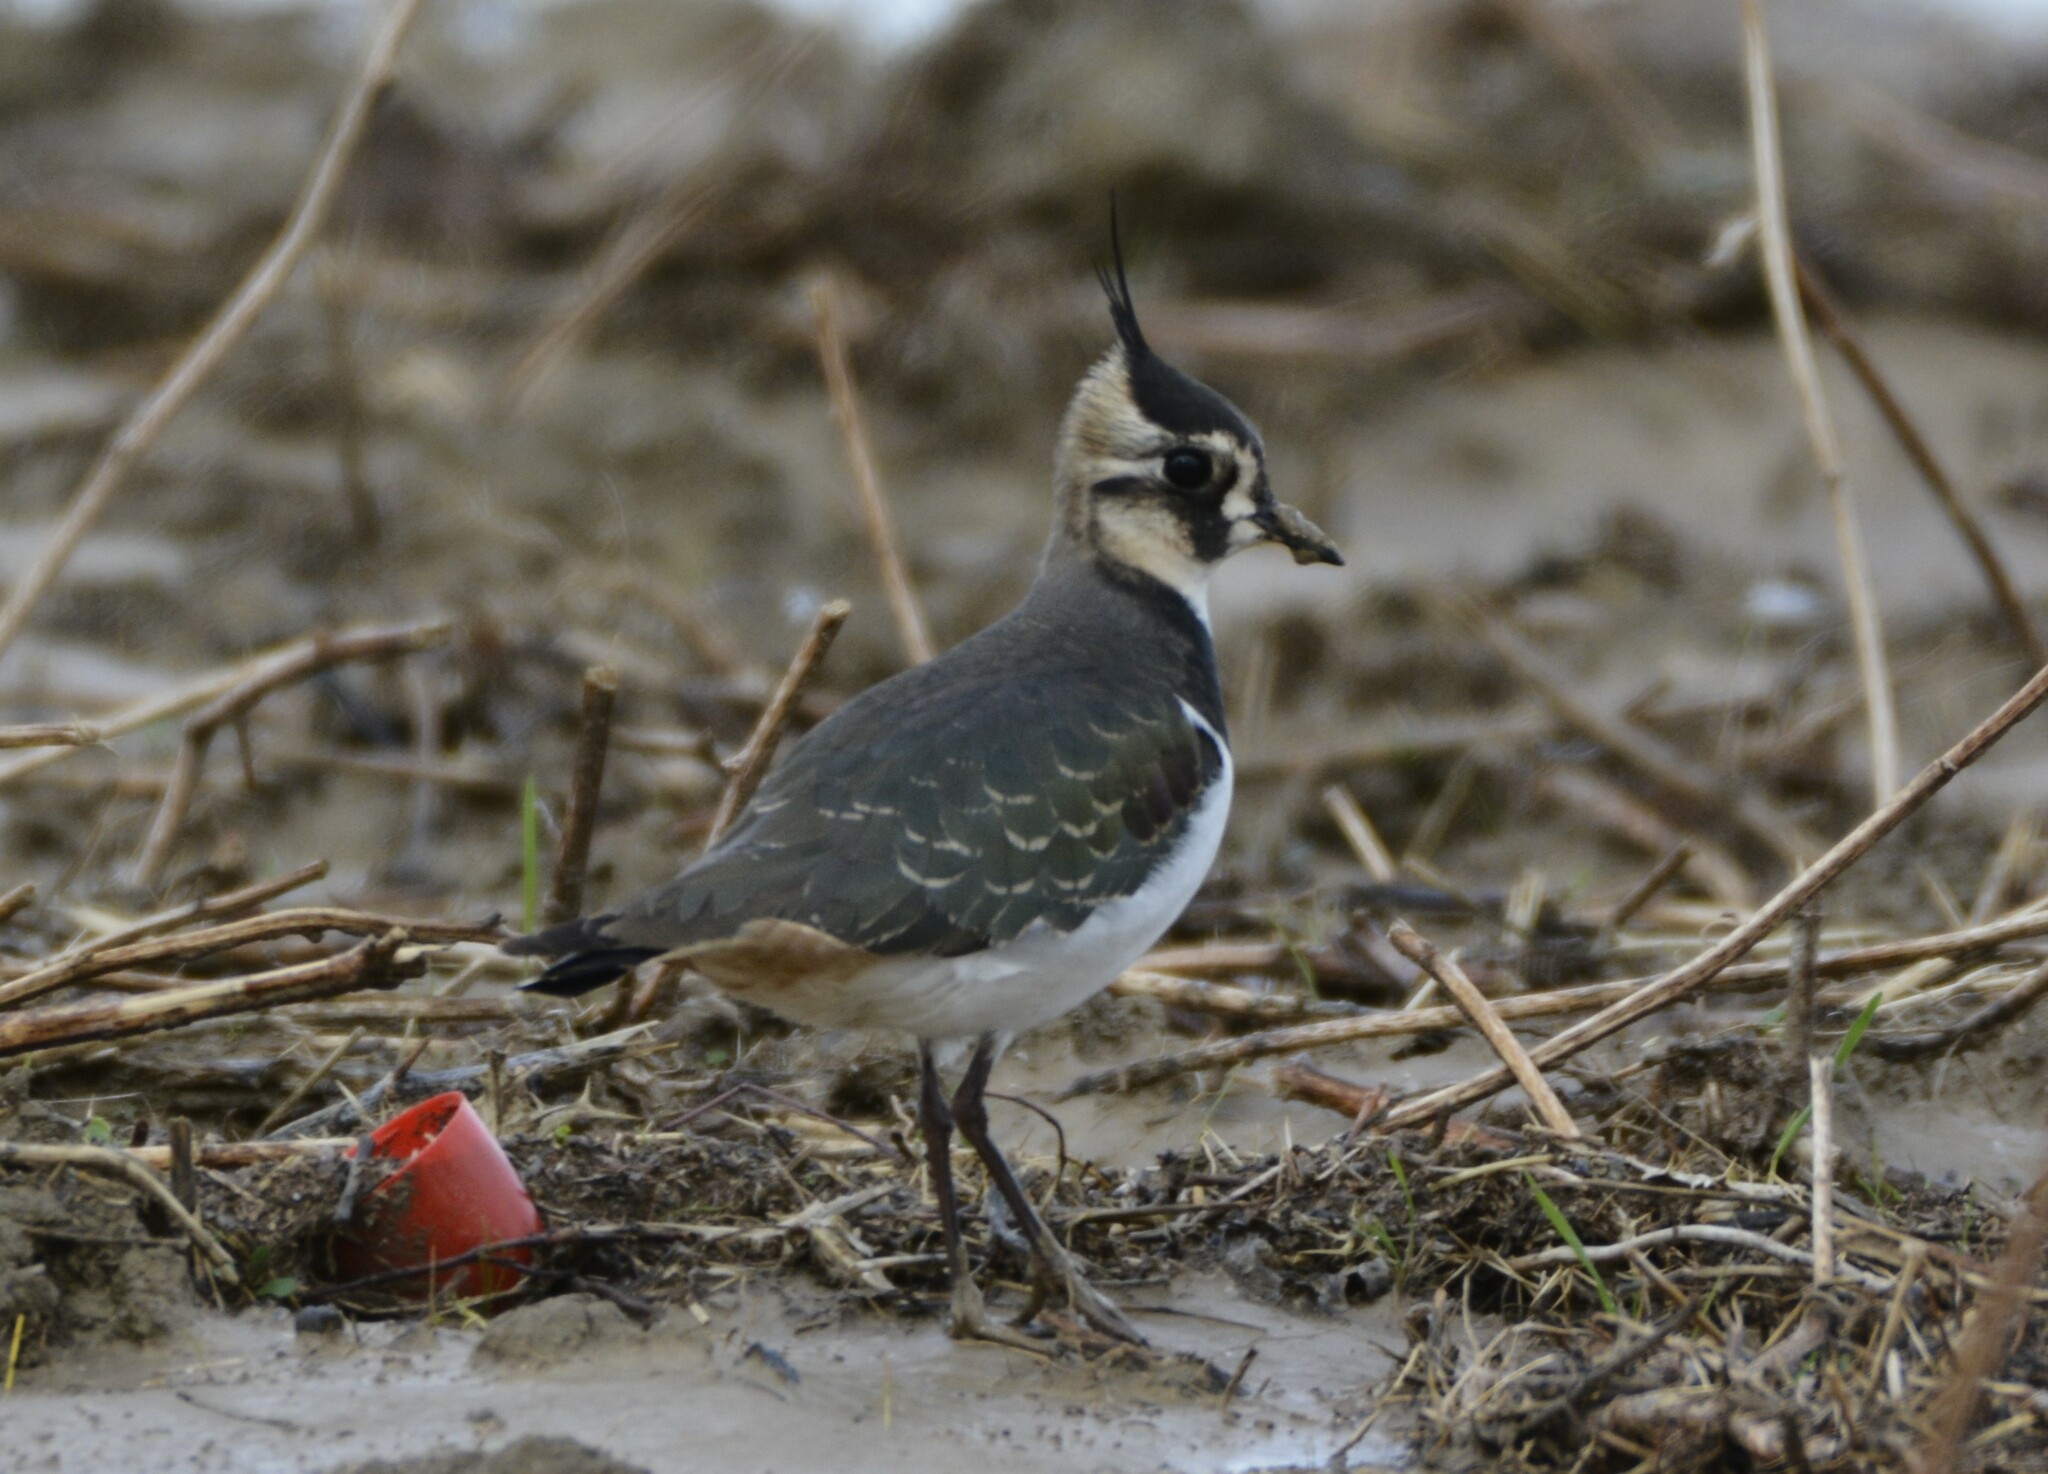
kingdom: Animalia
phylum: Chordata
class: Aves
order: Charadriiformes
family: Charadriidae
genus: Vanellus
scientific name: Vanellus vanellus
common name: Northern lapwing
